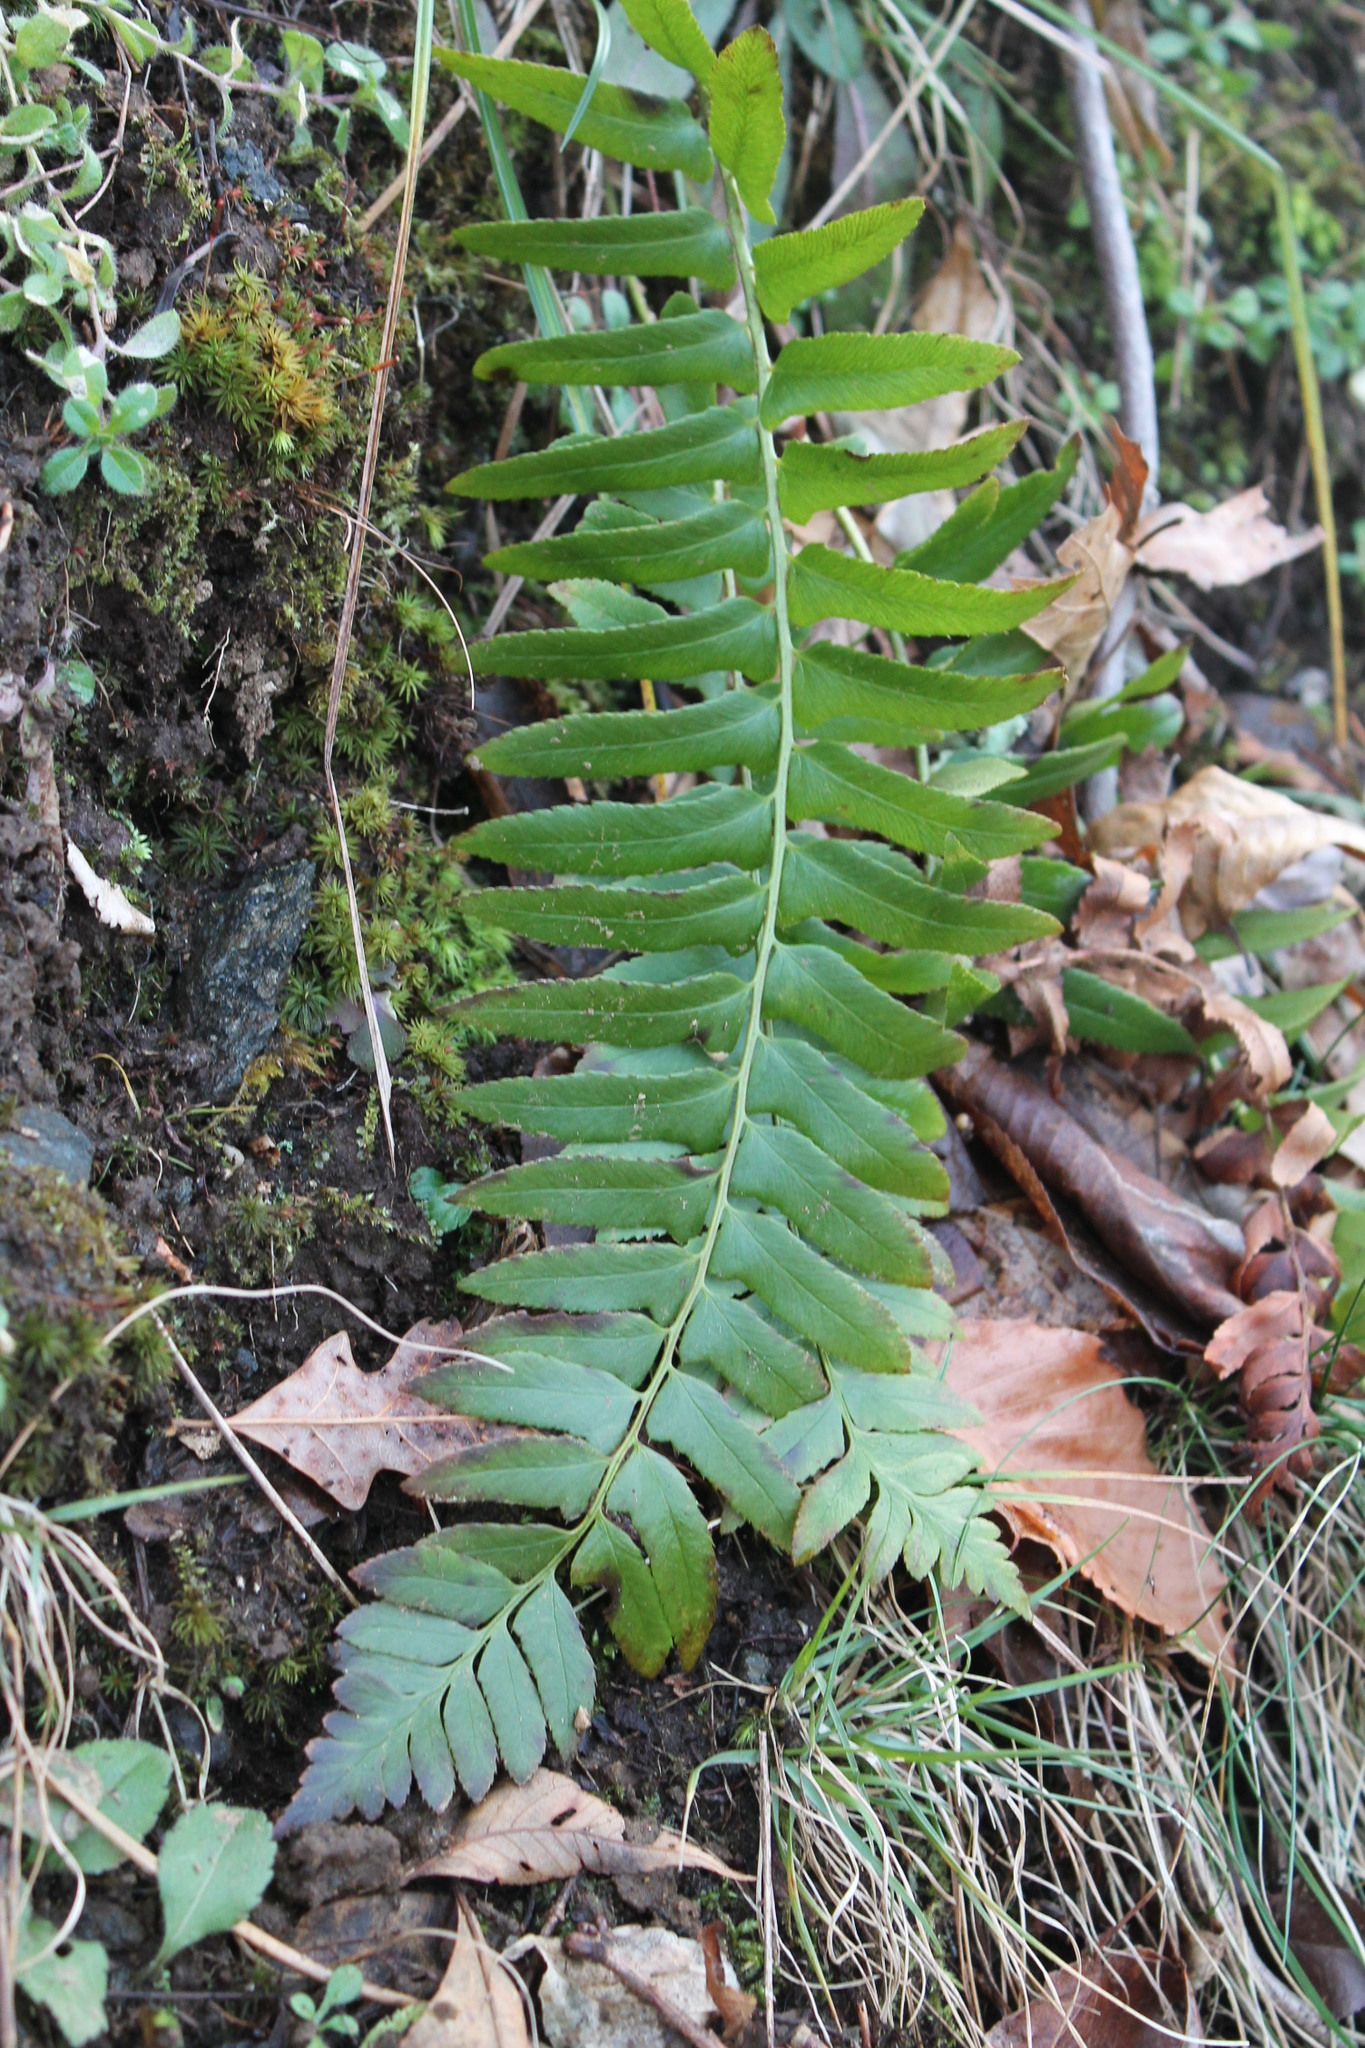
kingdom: Plantae
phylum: Tracheophyta
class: Polypodiopsida
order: Polypodiales
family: Dryopteridaceae
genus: Polystichum
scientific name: Polystichum acrostichoides
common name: Christmas fern
